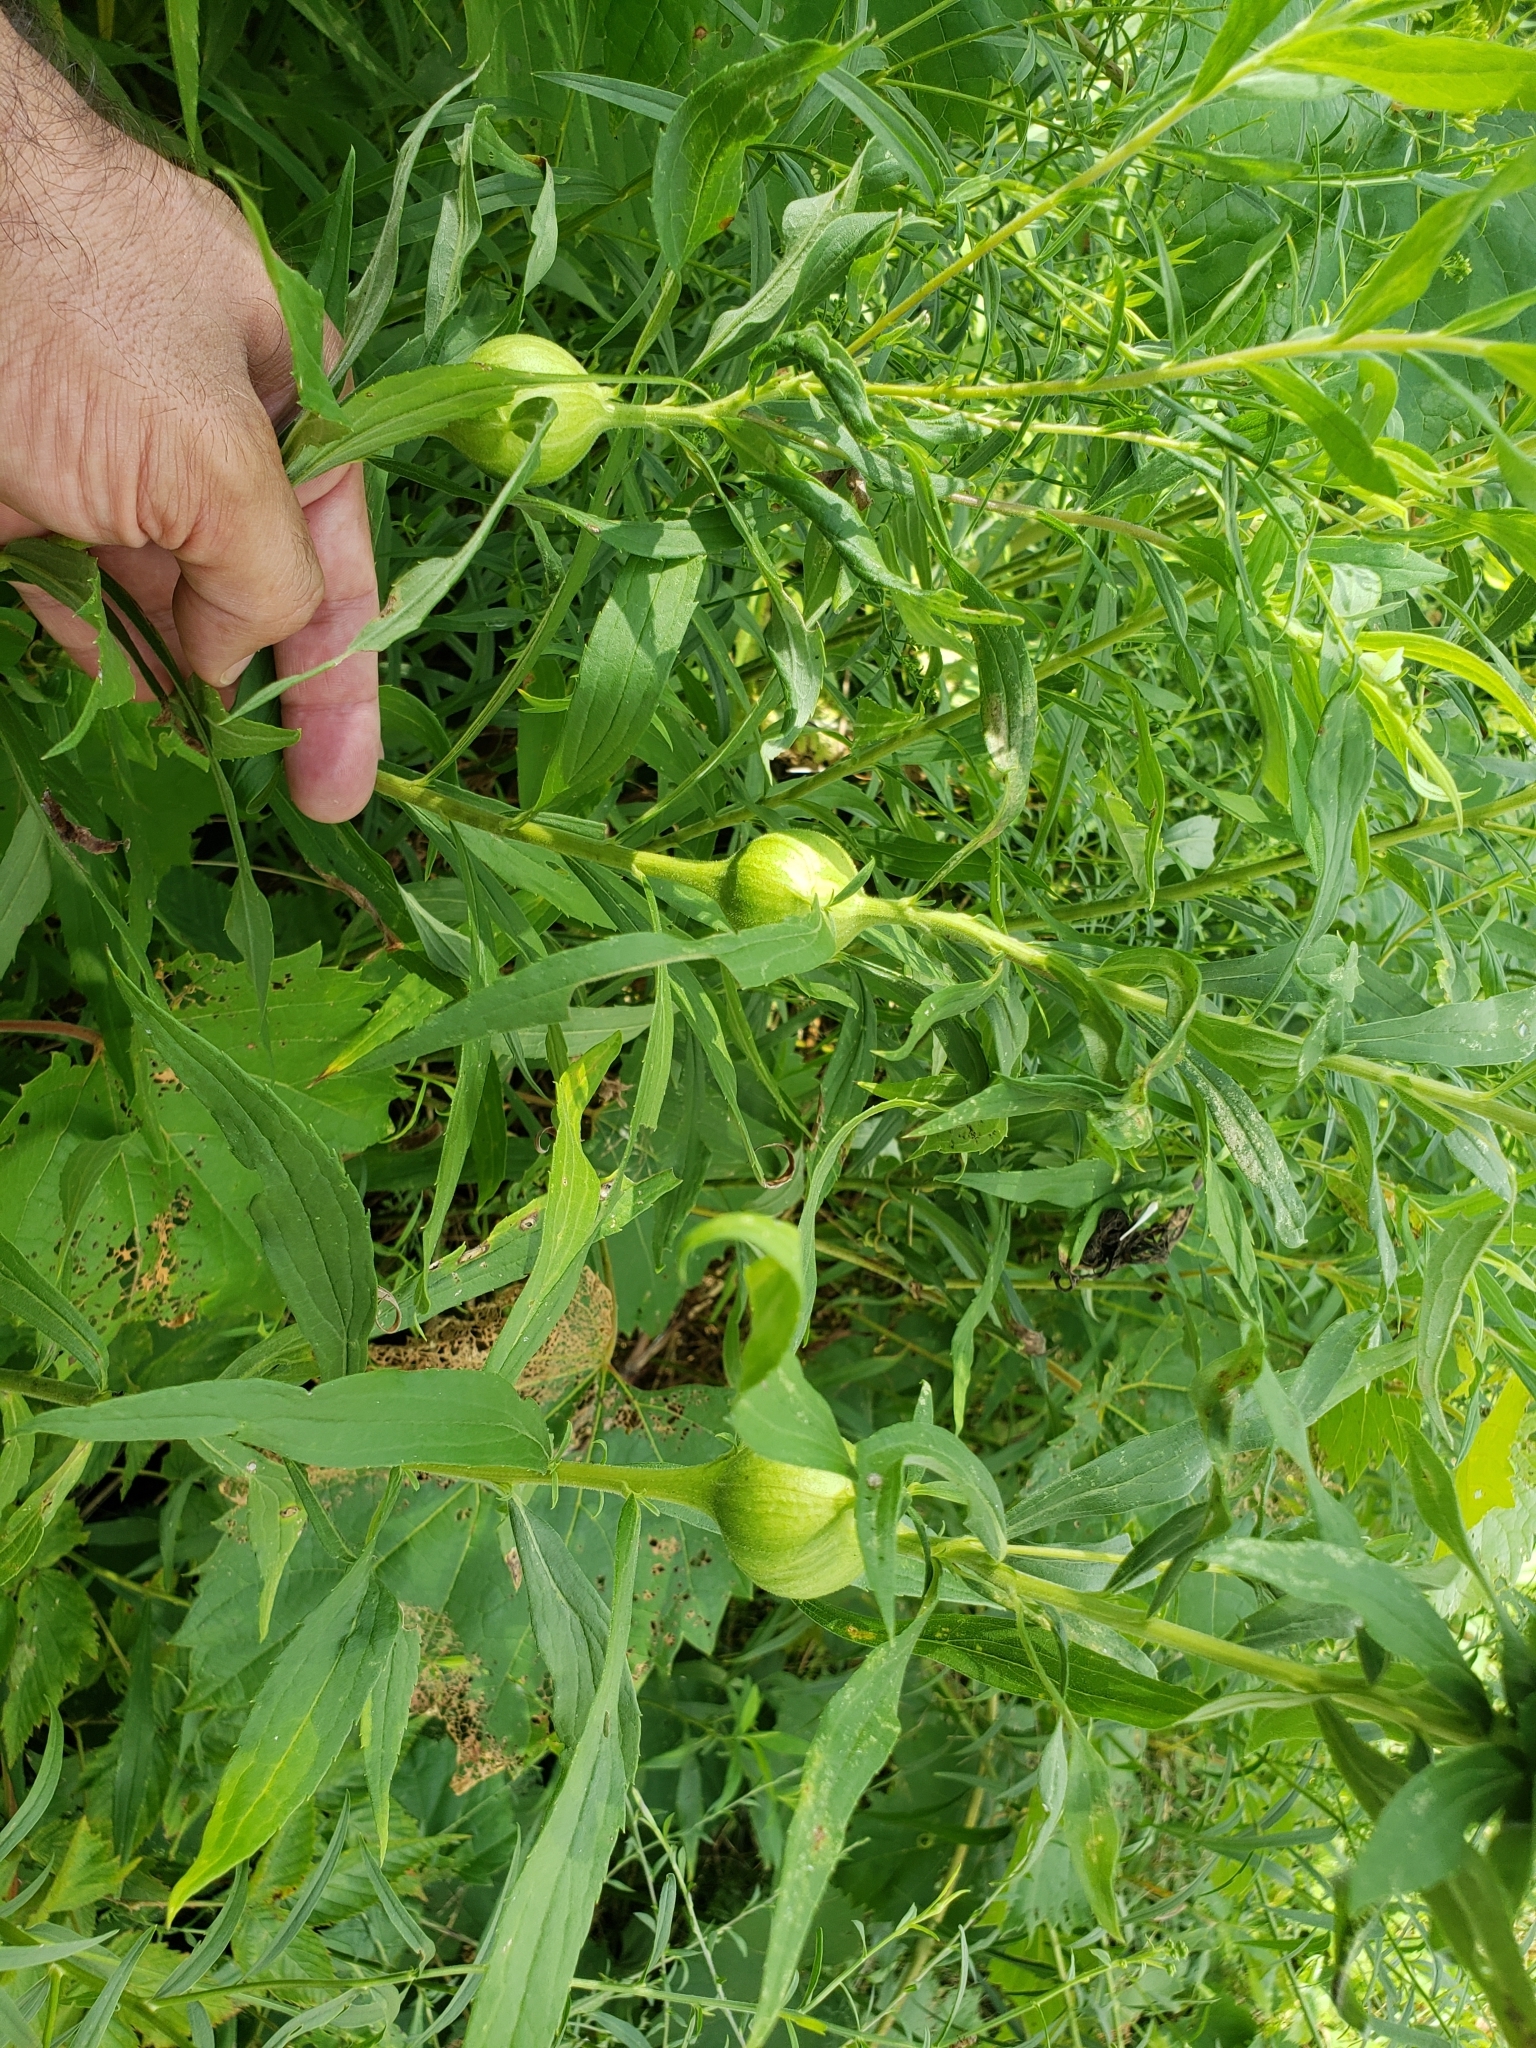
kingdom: Animalia
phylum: Arthropoda
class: Insecta
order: Diptera
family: Tephritidae
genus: Eurosta
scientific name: Eurosta solidaginis
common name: Goldenrod gall fly
